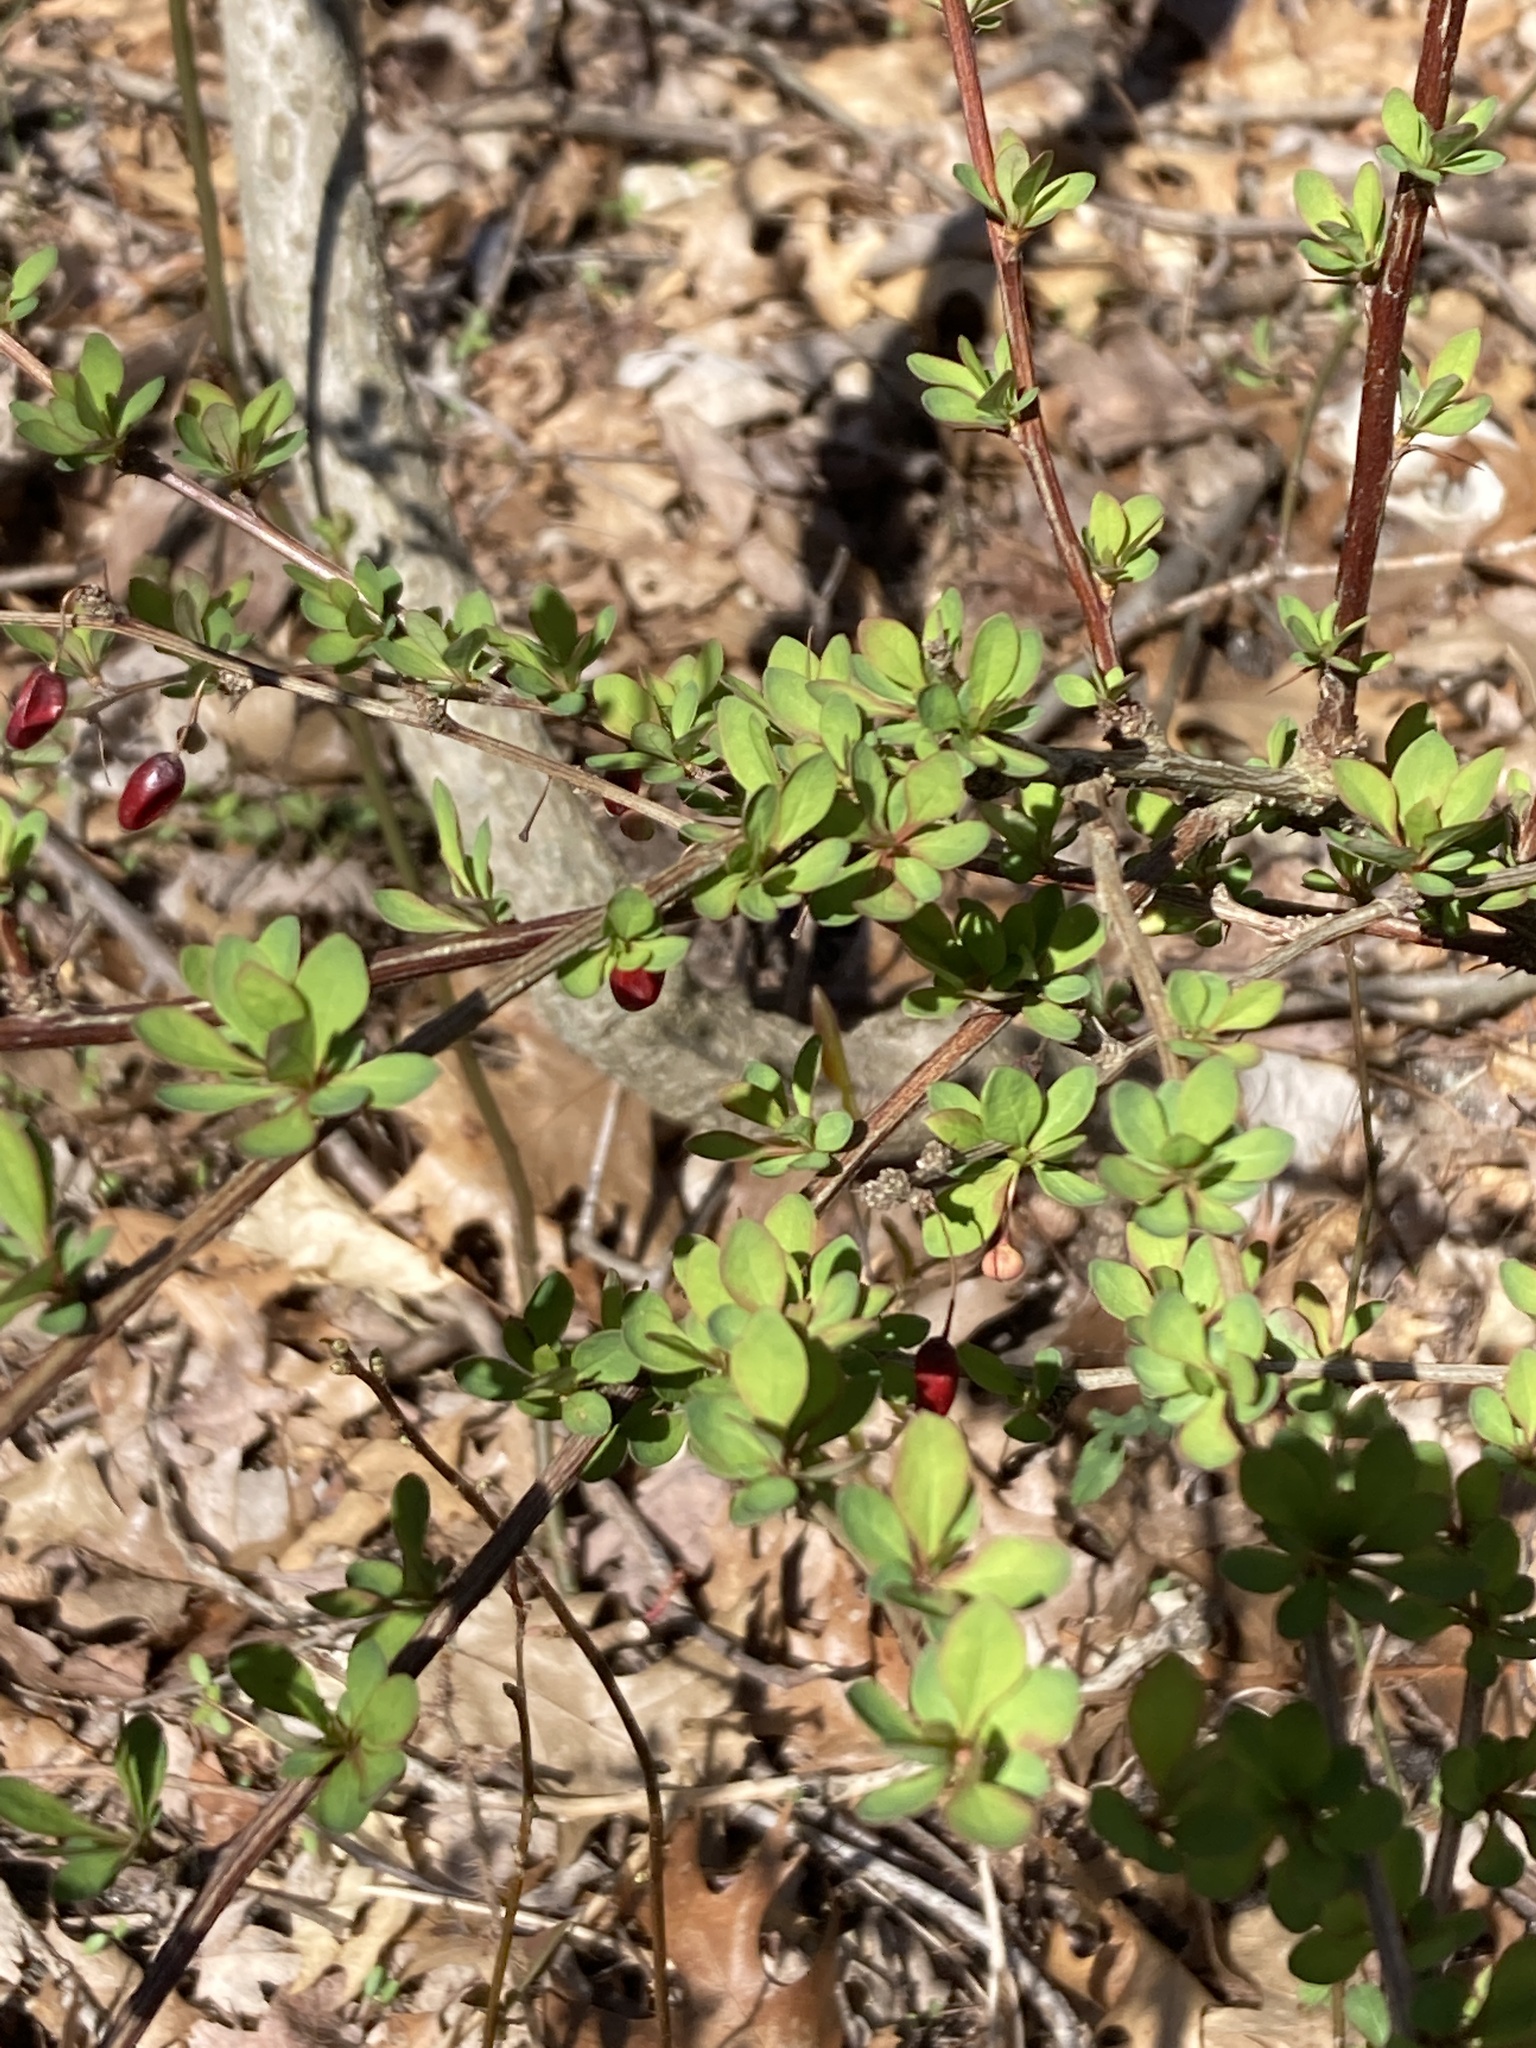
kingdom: Plantae
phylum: Tracheophyta
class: Magnoliopsida
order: Ranunculales
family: Berberidaceae
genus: Berberis
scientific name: Berberis thunbergii
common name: Japanese barberry
